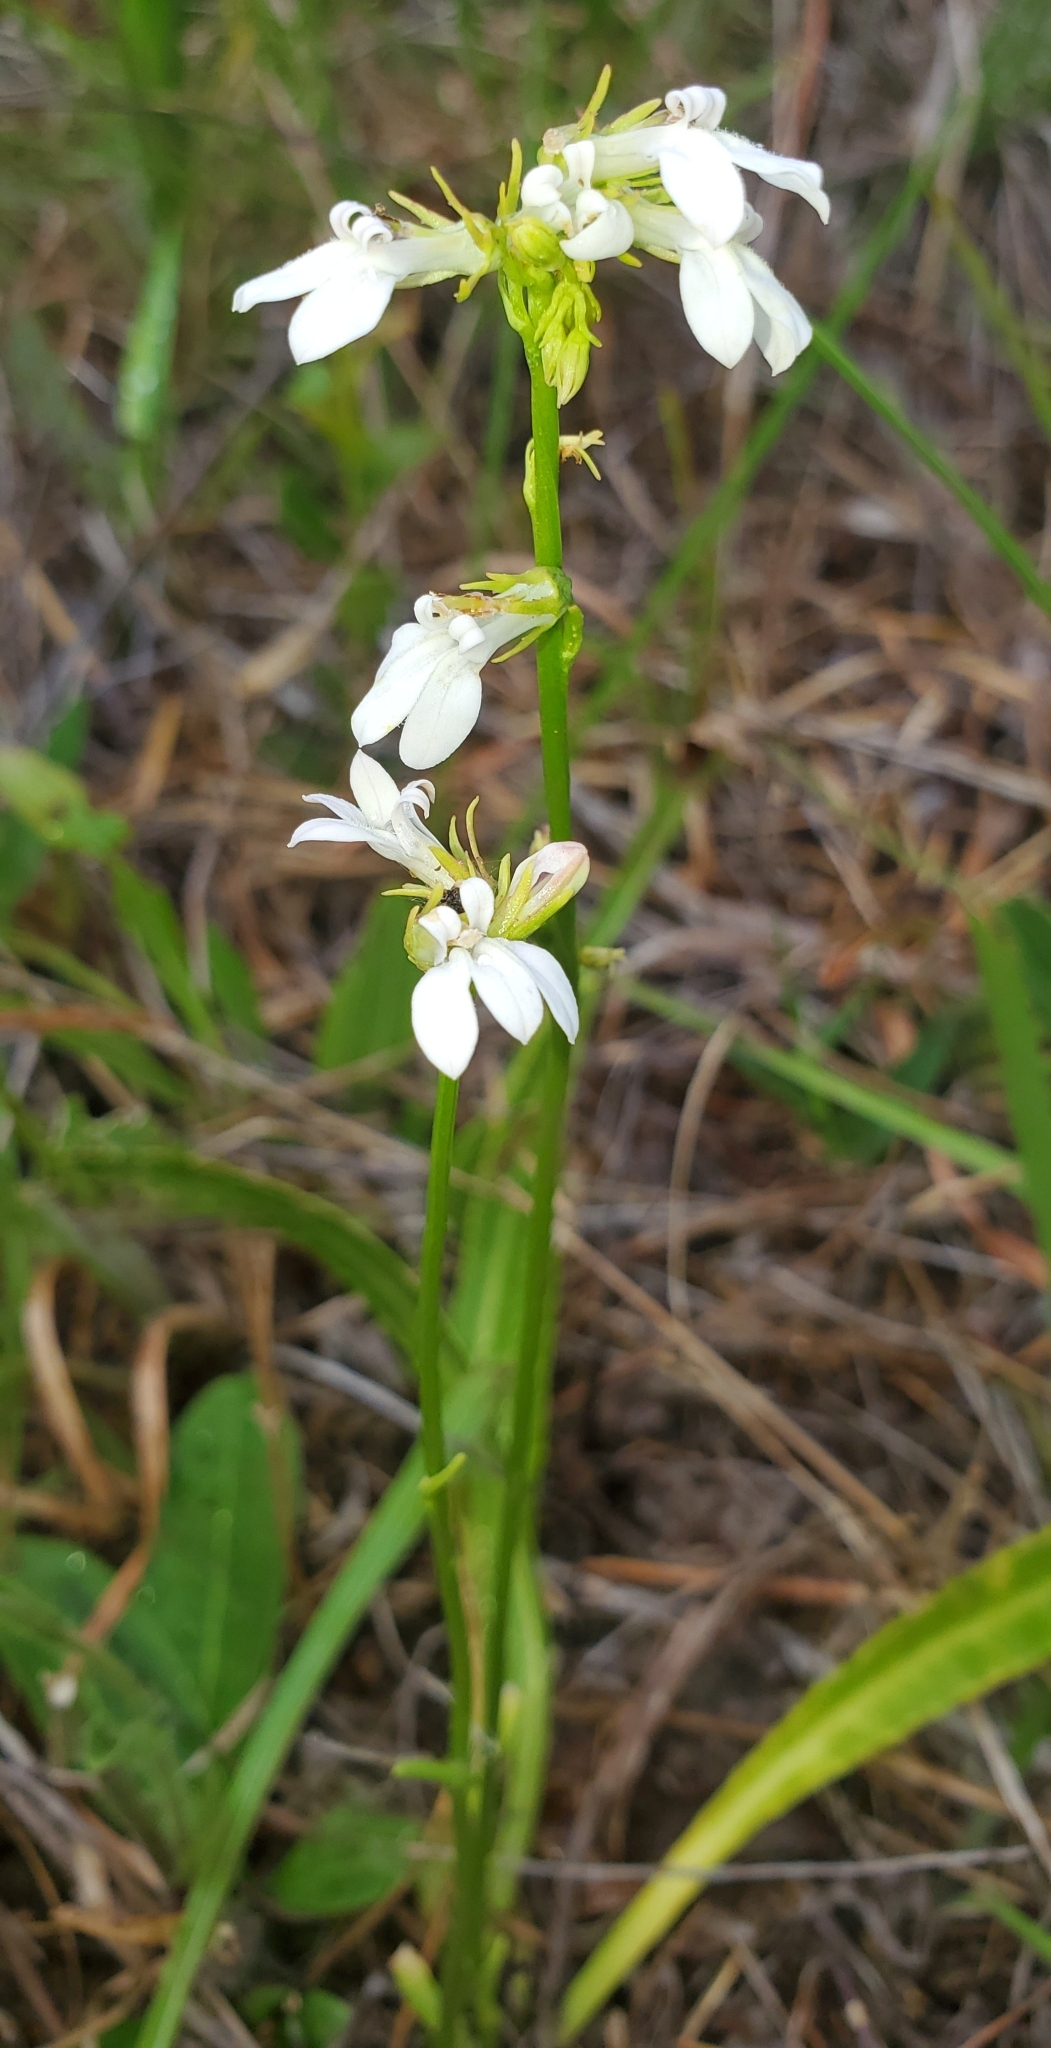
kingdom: Plantae
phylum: Tracheophyta
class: Magnoliopsida
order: Asterales
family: Campanulaceae
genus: Lobelia
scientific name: Lobelia paludosa
